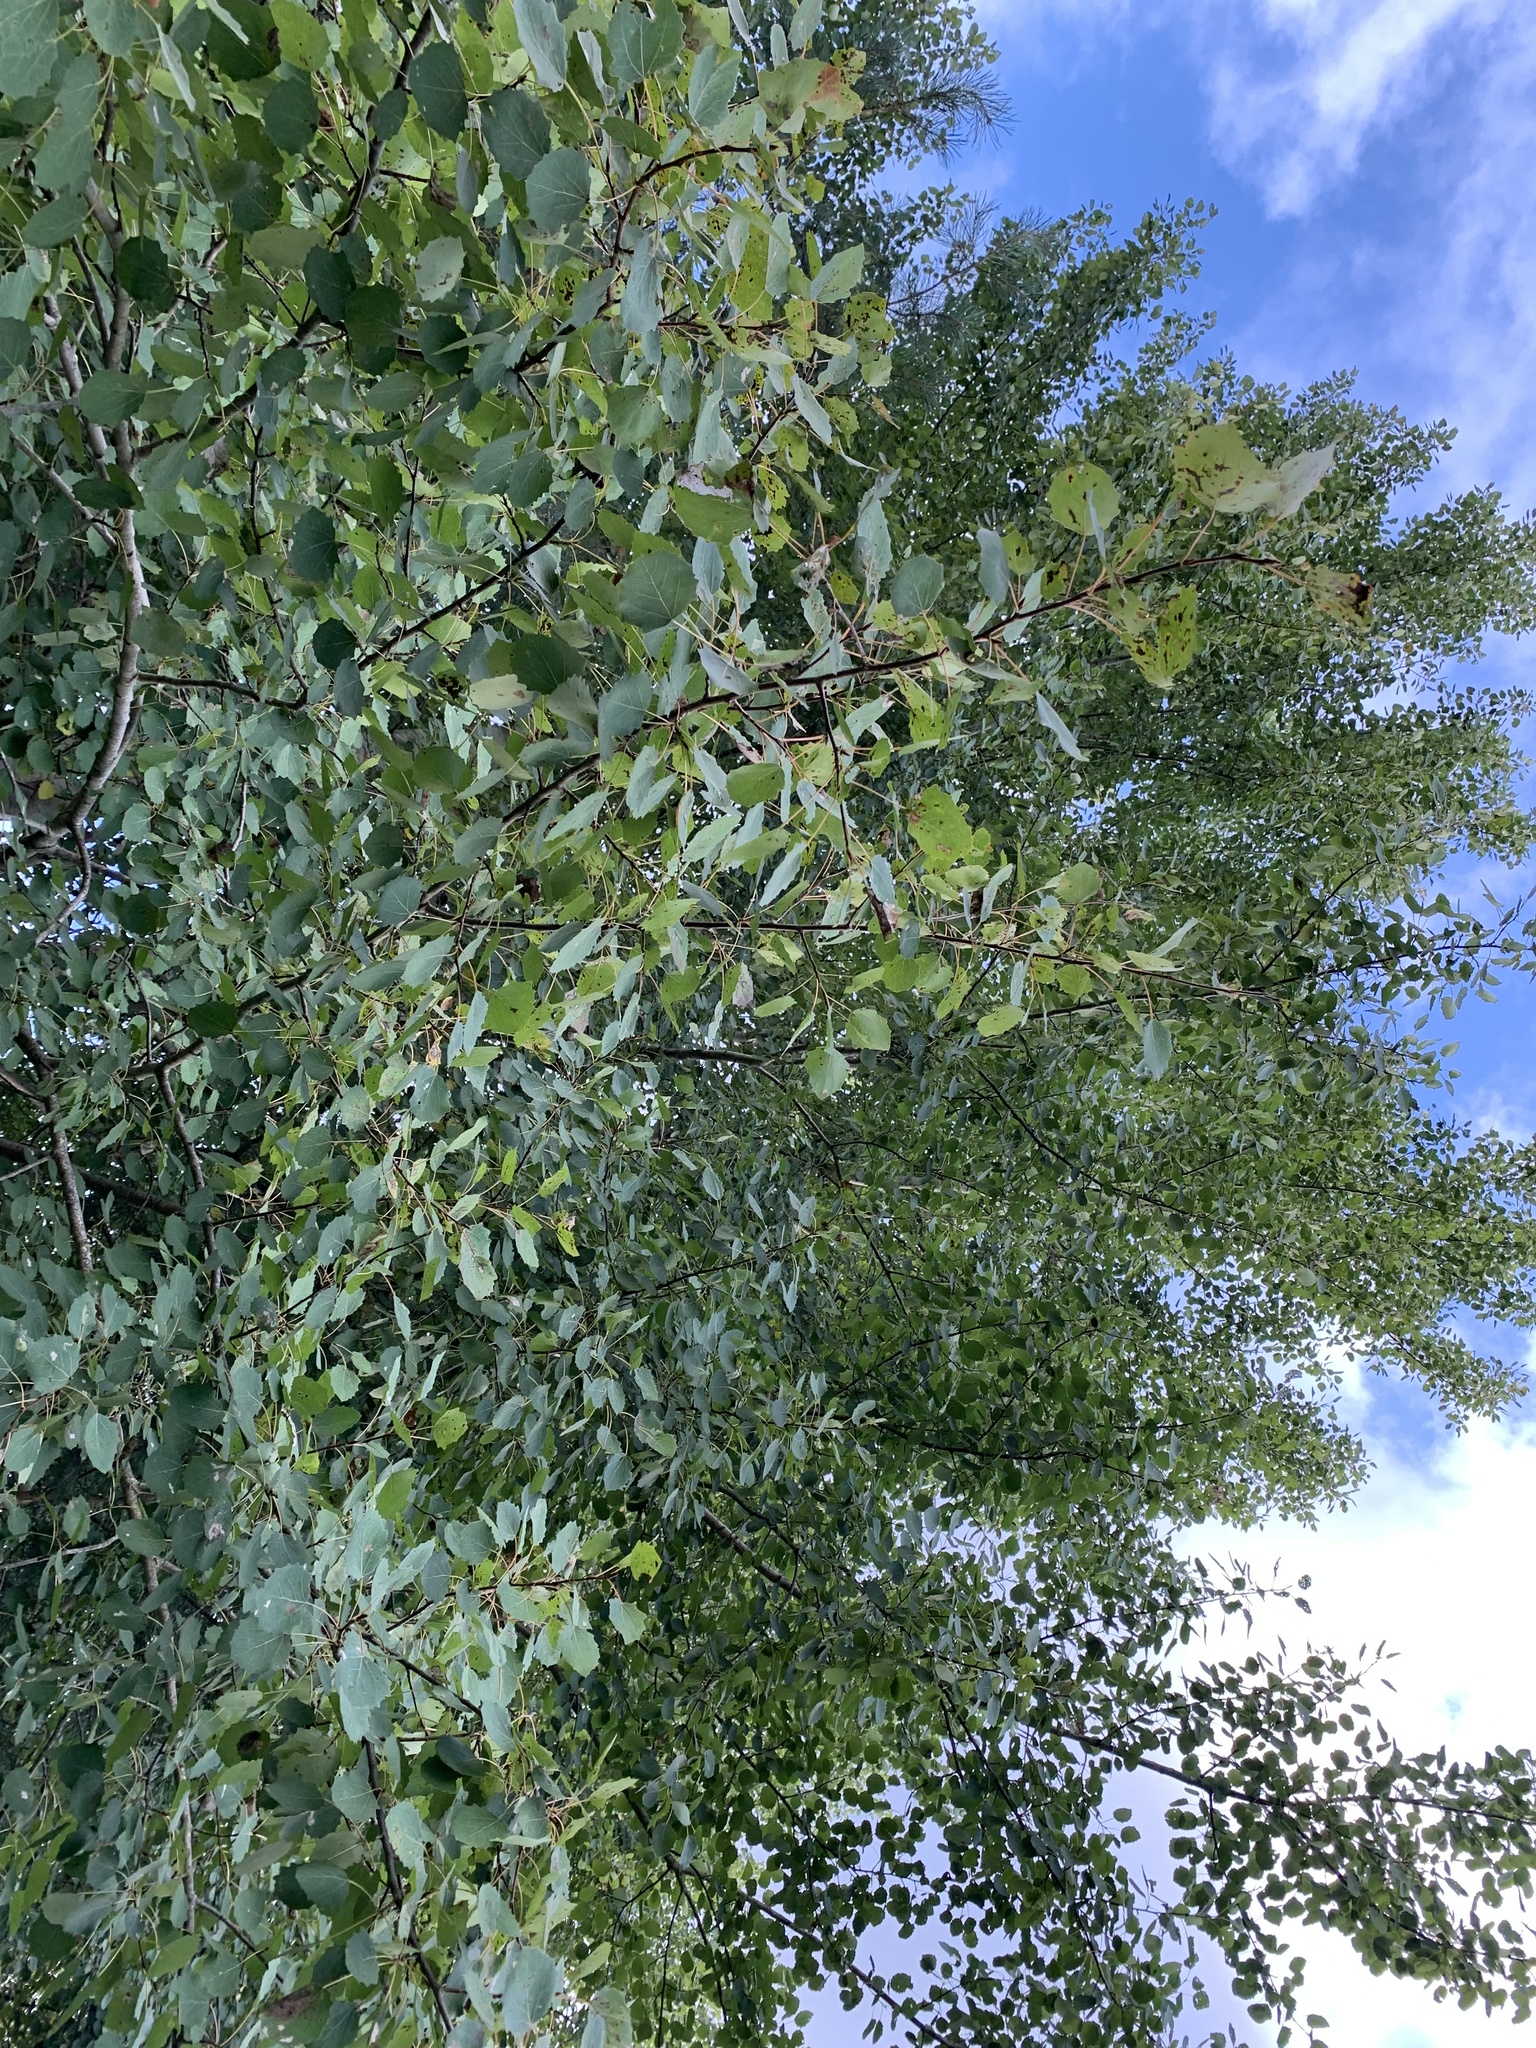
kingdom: Plantae
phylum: Tracheophyta
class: Magnoliopsida
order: Malpighiales
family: Salicaceae
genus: Populus
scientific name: Populus tremula
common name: European aspen
